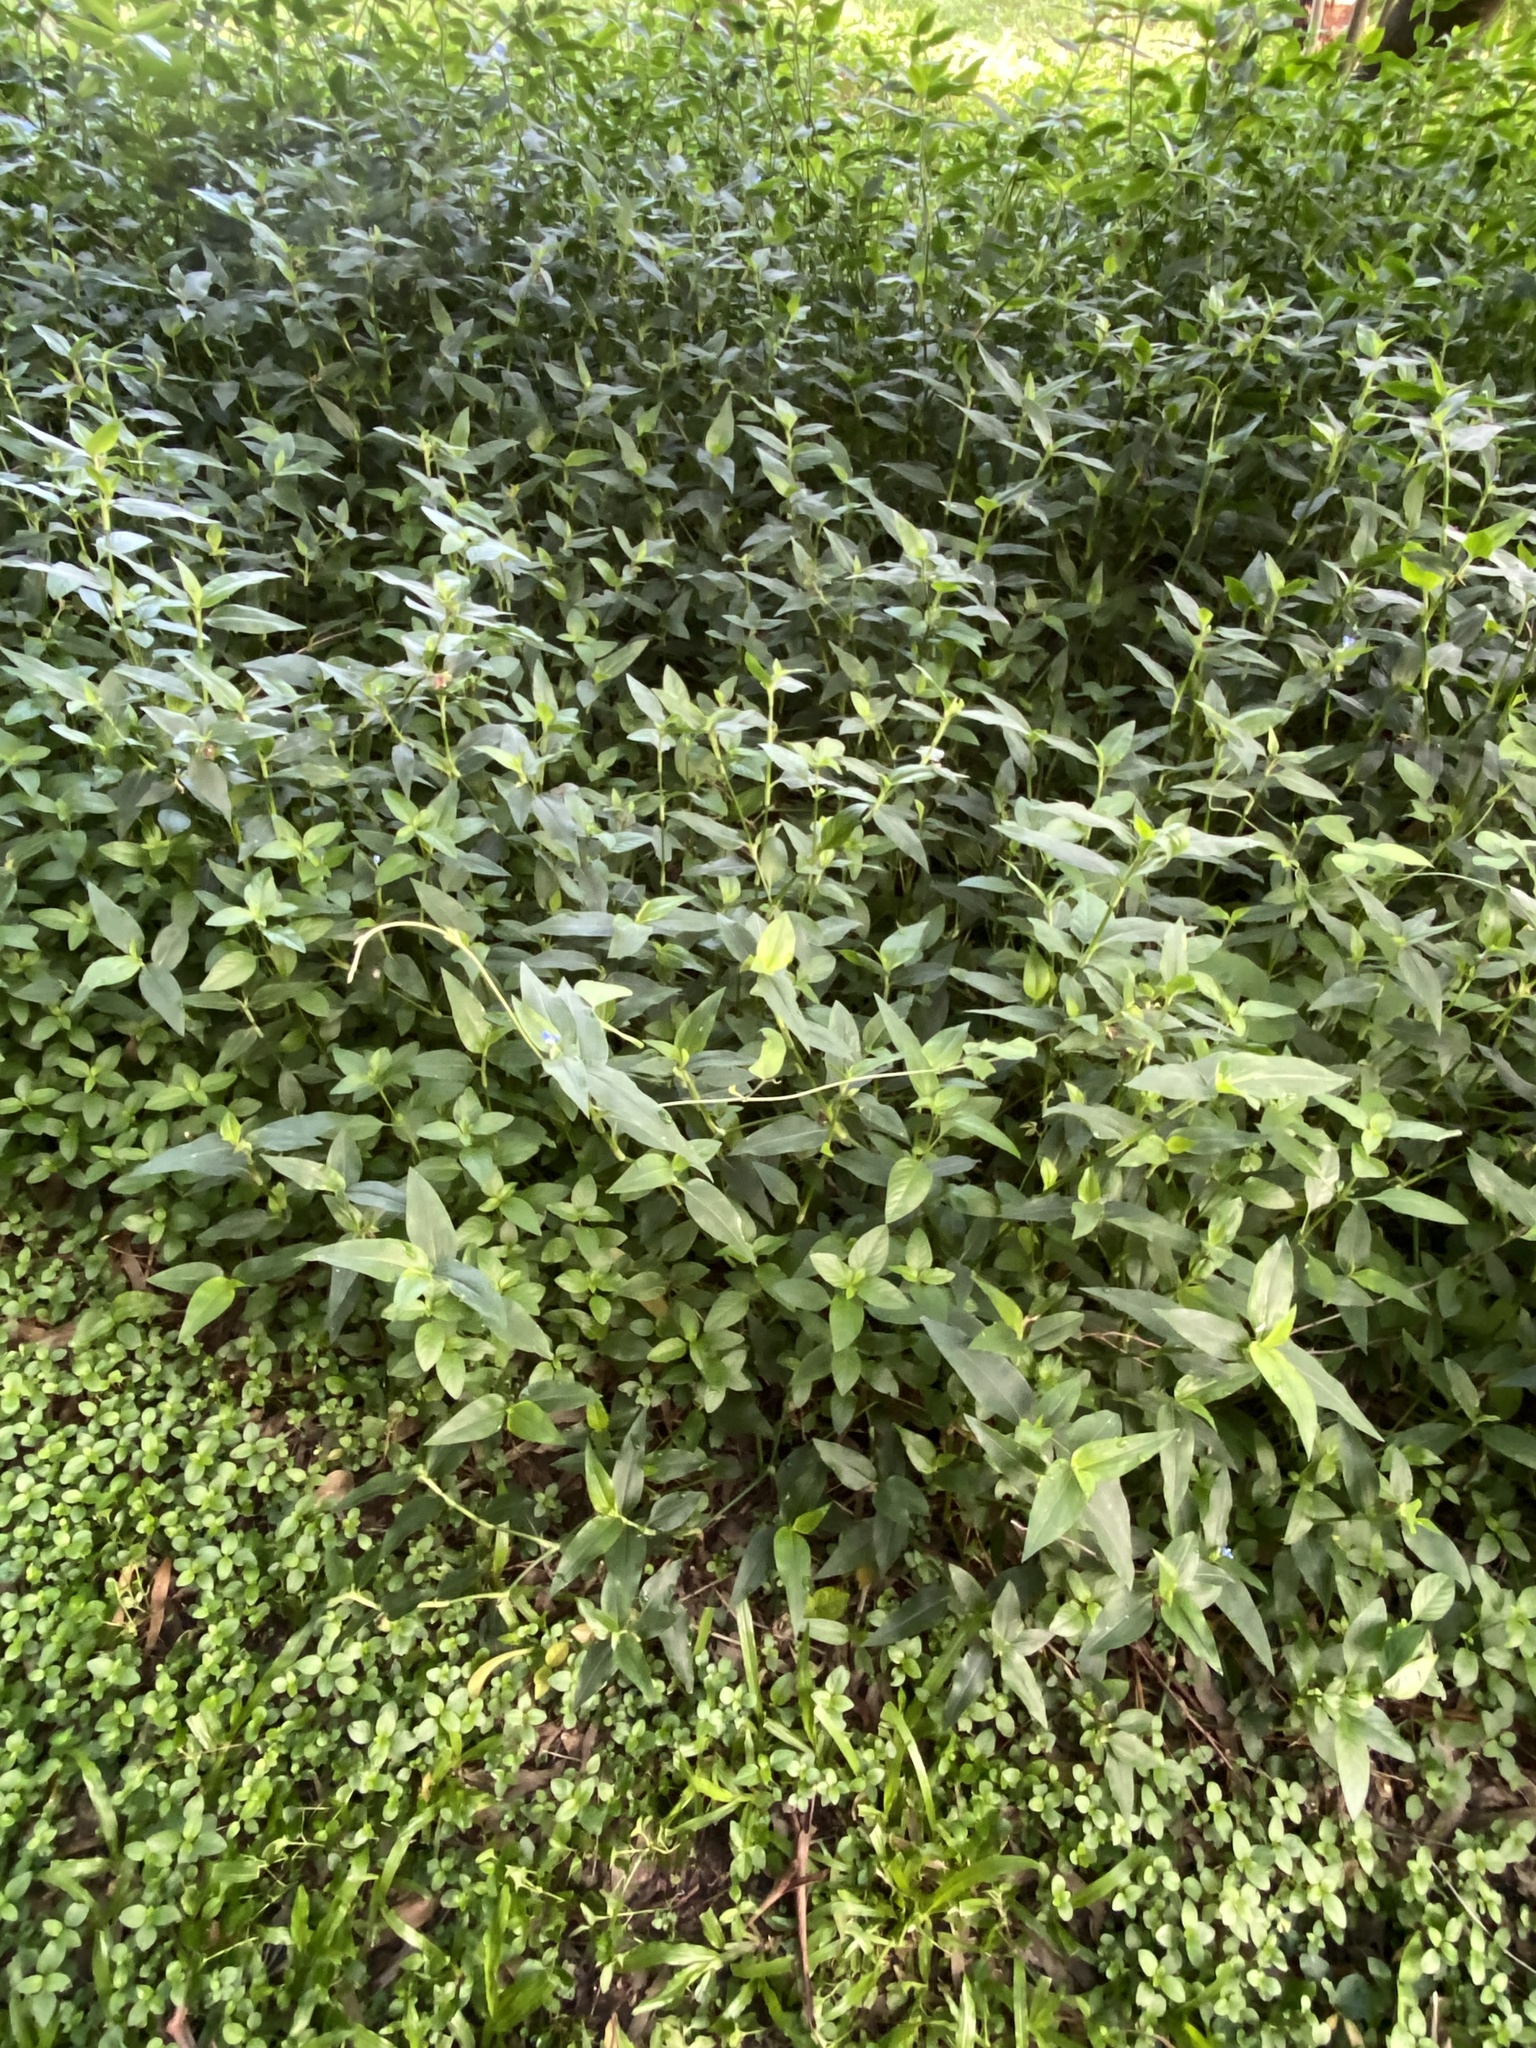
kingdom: Plantae
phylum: Tracheophyta
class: Liliopsida
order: Commelinales
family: Commelinaceae
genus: Commelina
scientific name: Commelina benghalensis
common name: Jio
